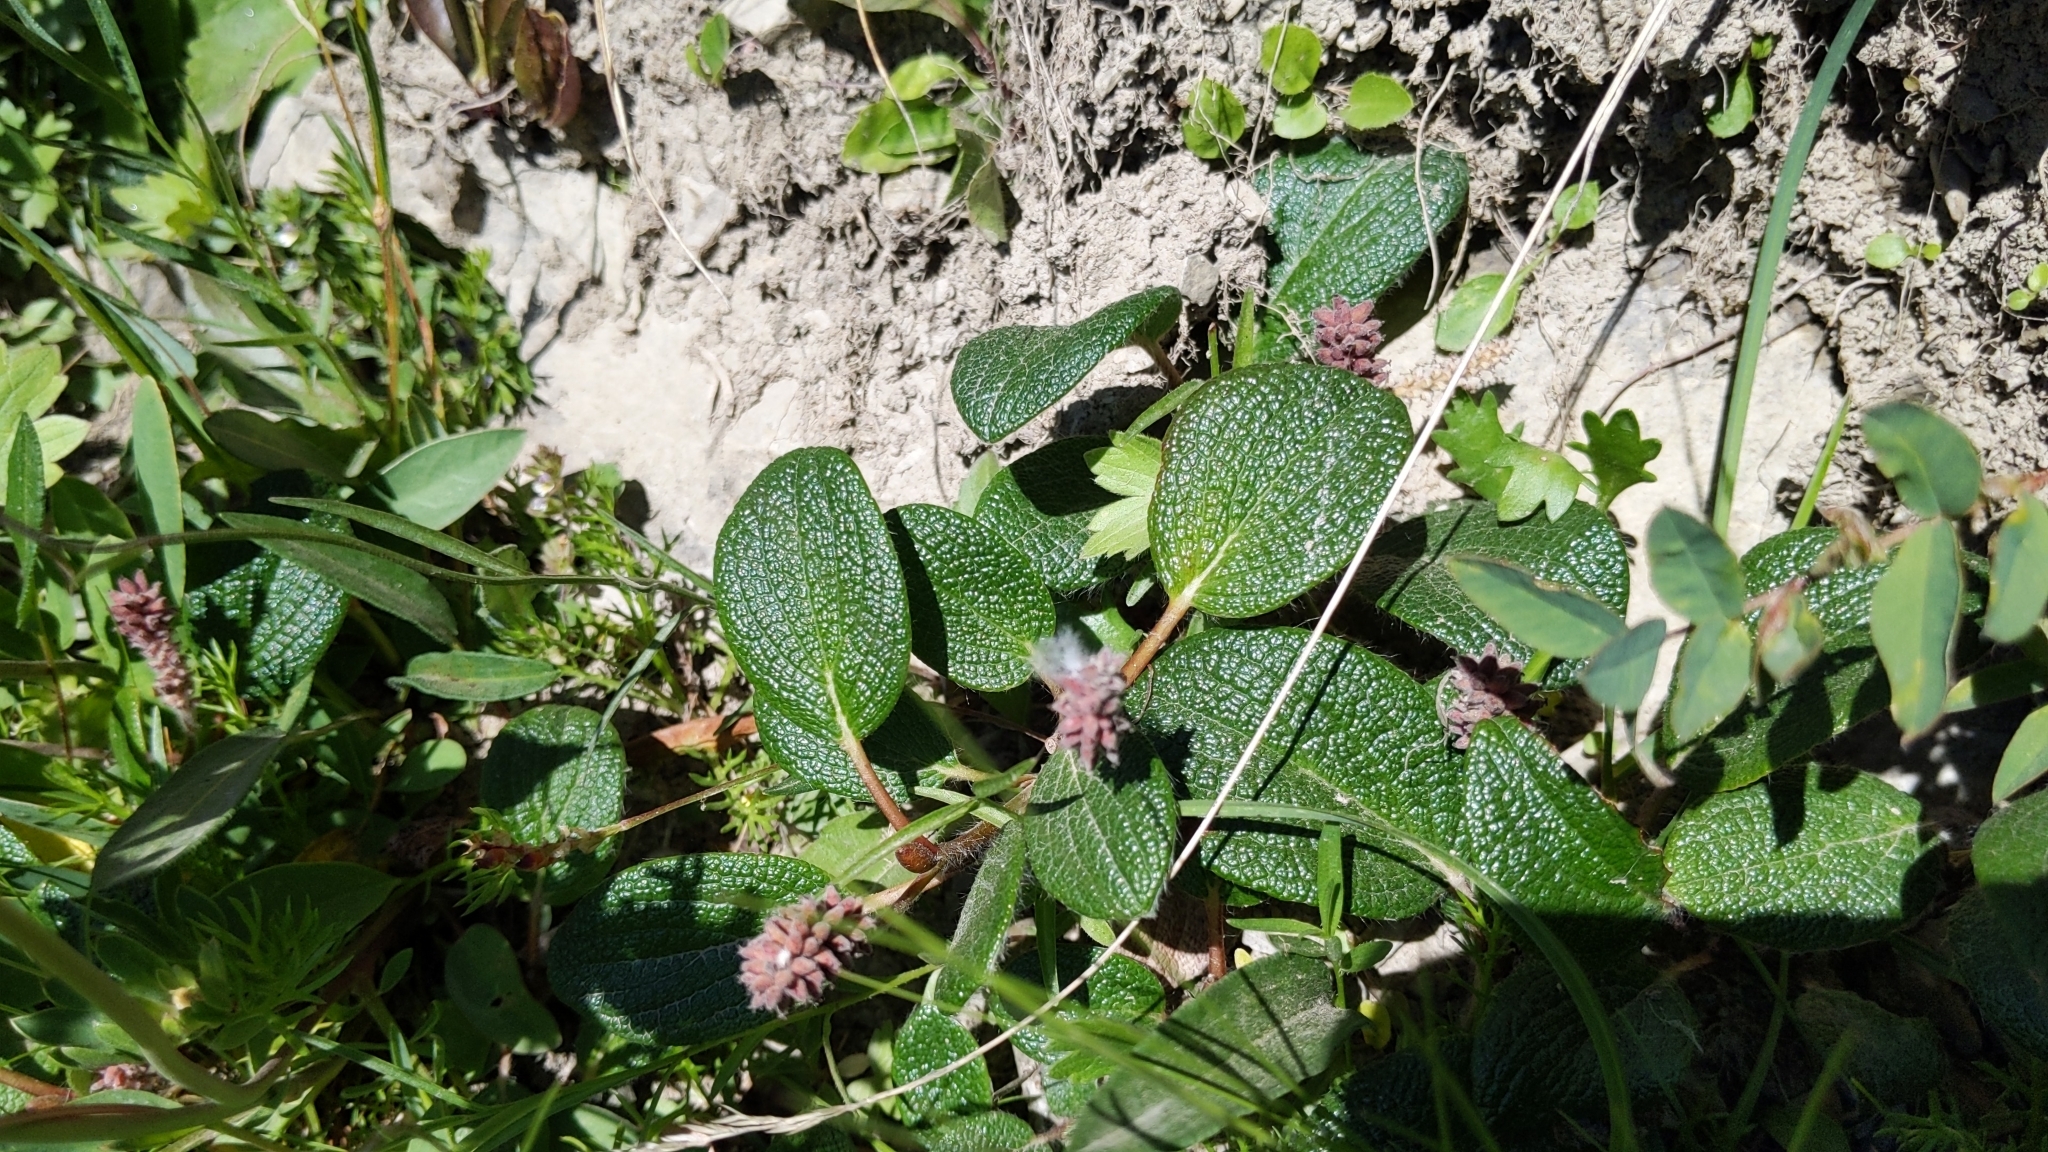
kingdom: Plantae
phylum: Tracheophyta
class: Magnoliopsida
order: Malpighiales
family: Salicaceae
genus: Salix
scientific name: Salix reticulata
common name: Net-leaved willow
